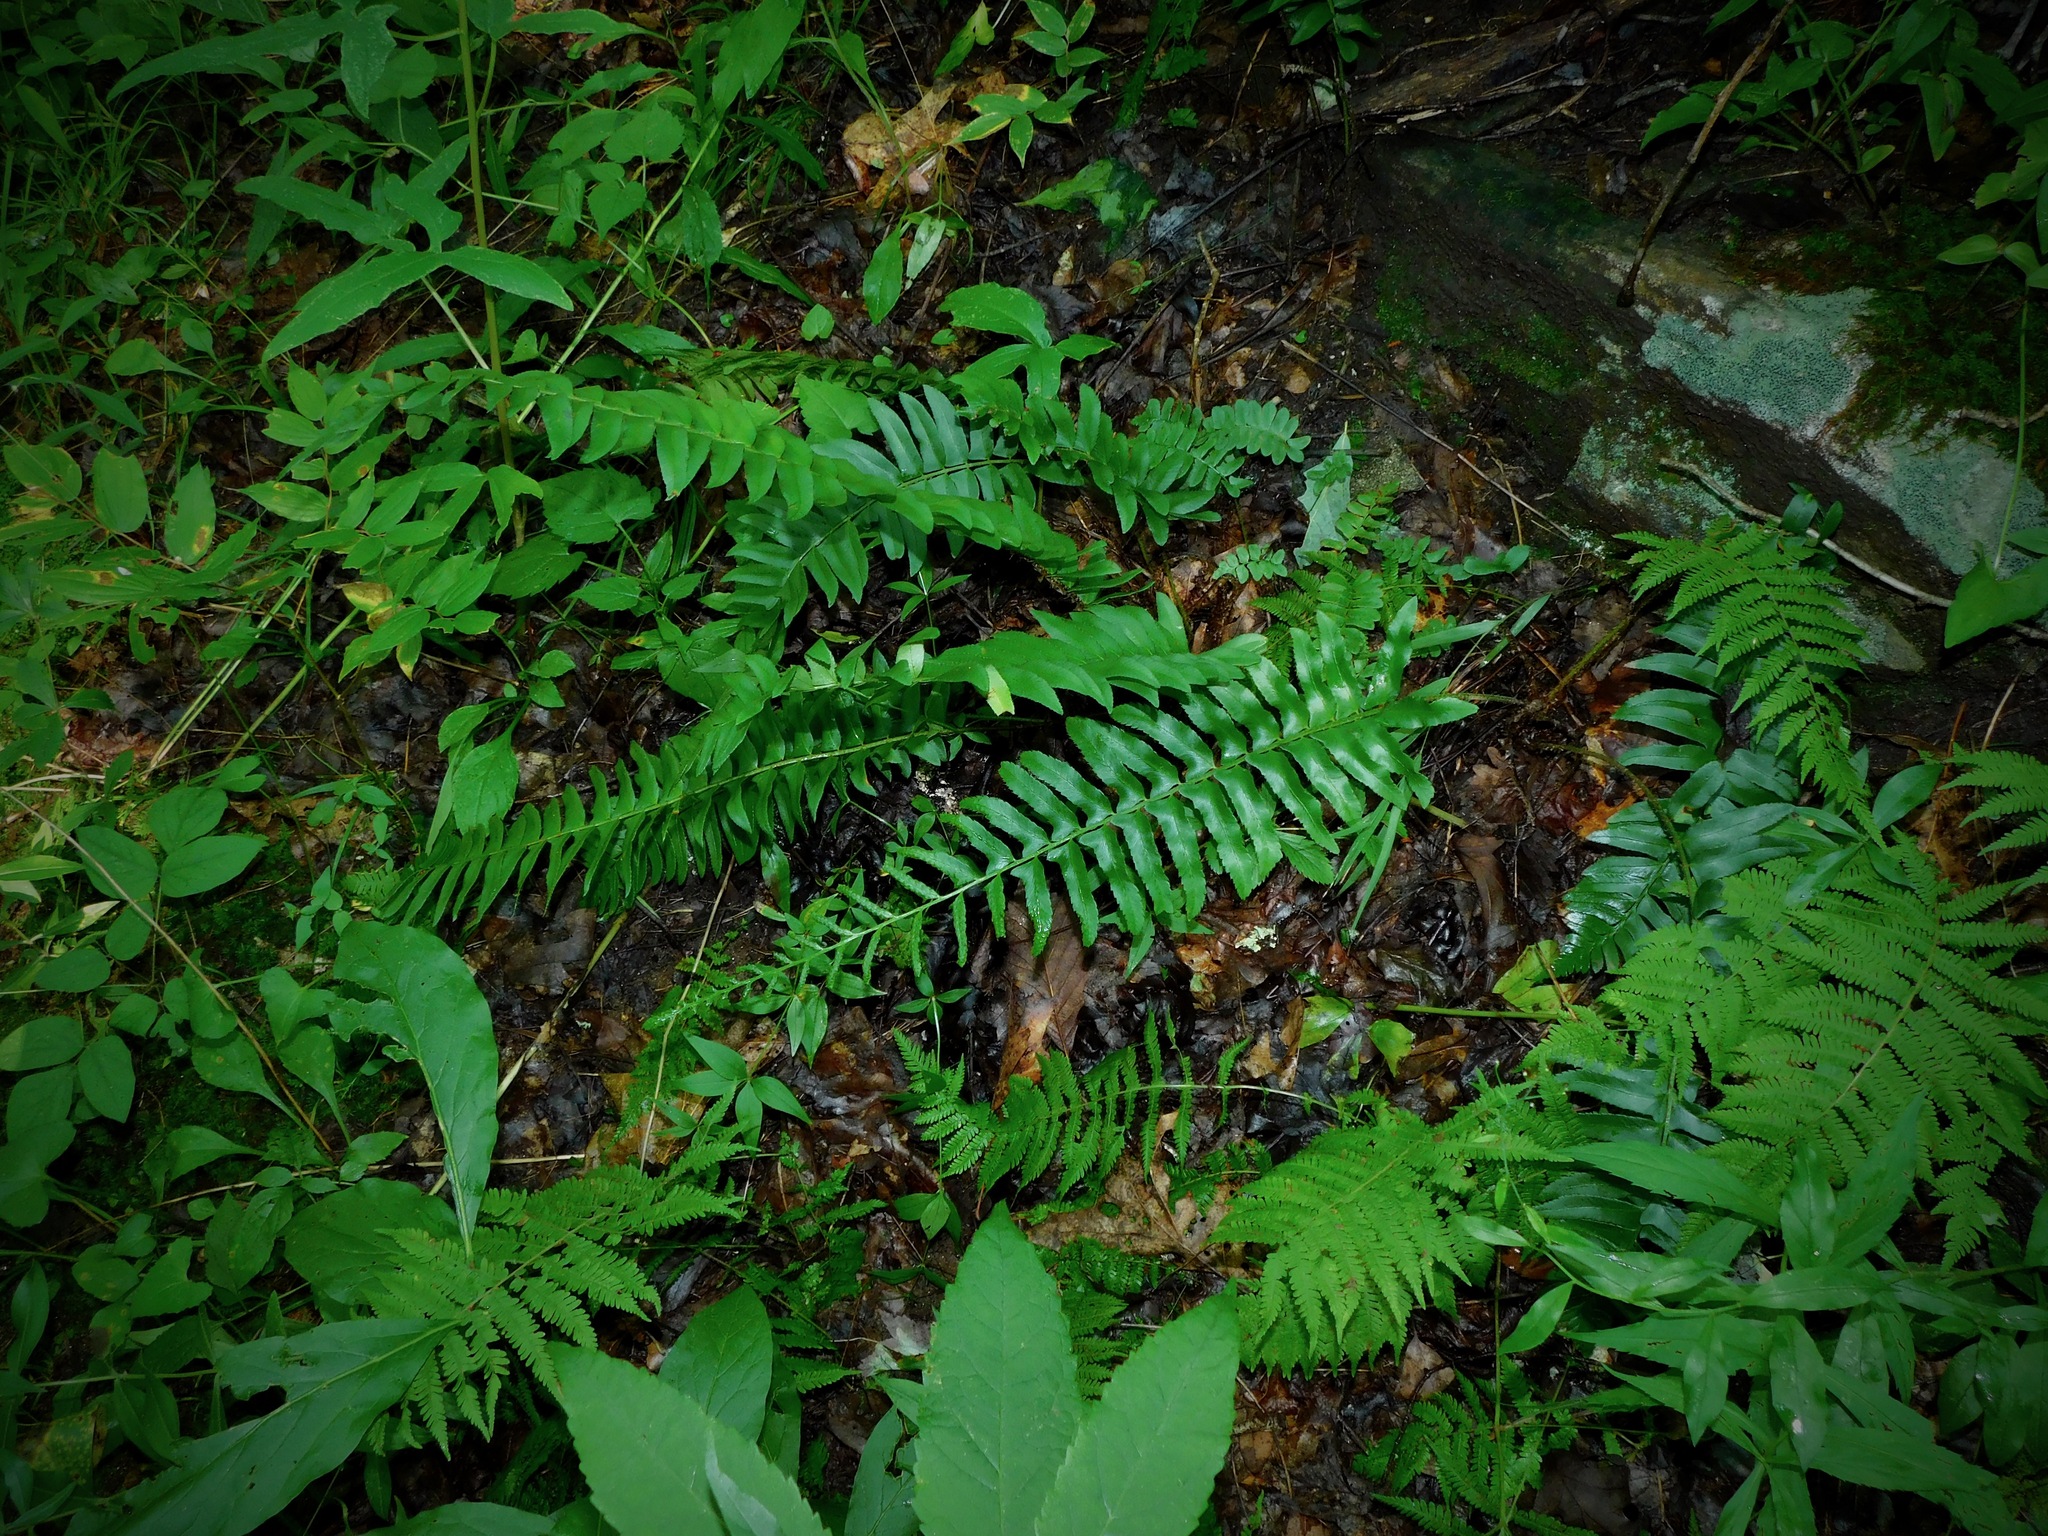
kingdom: Plantae
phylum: Tracheophyta
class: Polypodiopsida
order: Polypodiales
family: Dryopteridaceae
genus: Polystichum
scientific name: Polystichum acrostichoides
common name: Christmas fern
